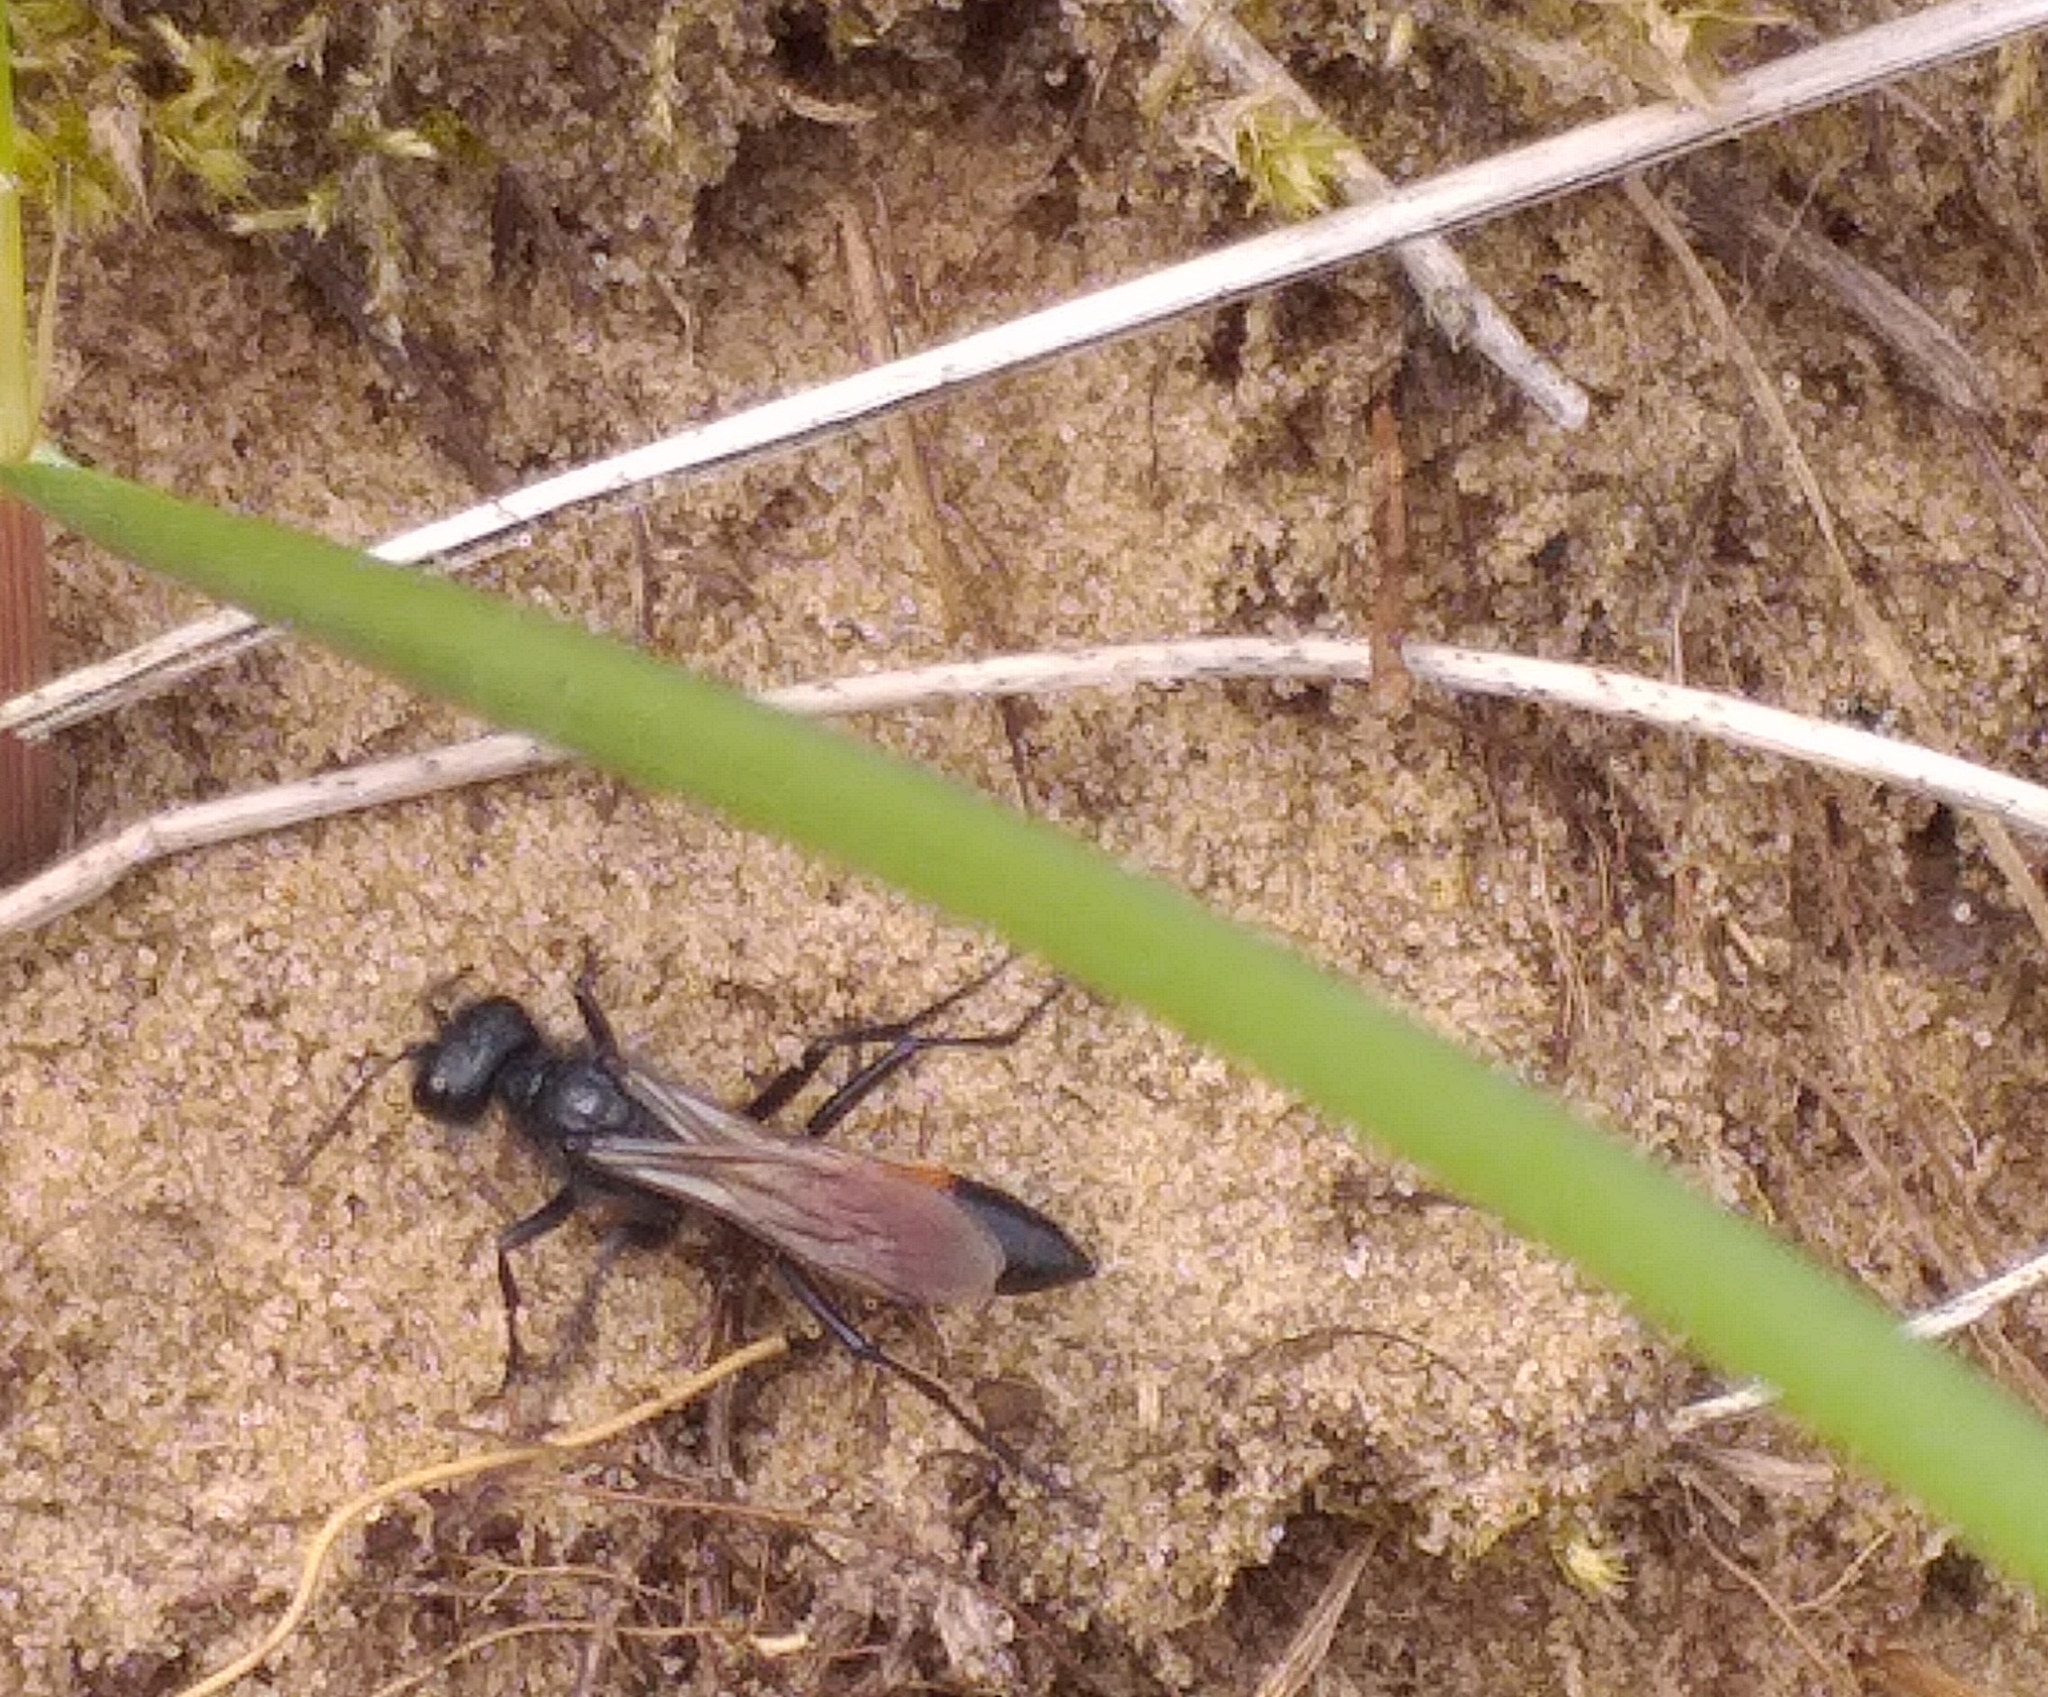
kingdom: Animalia
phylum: Arthropoda
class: Insecta
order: Hymenoptera
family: Sphecidae
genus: Ammophila
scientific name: Ammophila sabulosa
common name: Red banded sand wasp
